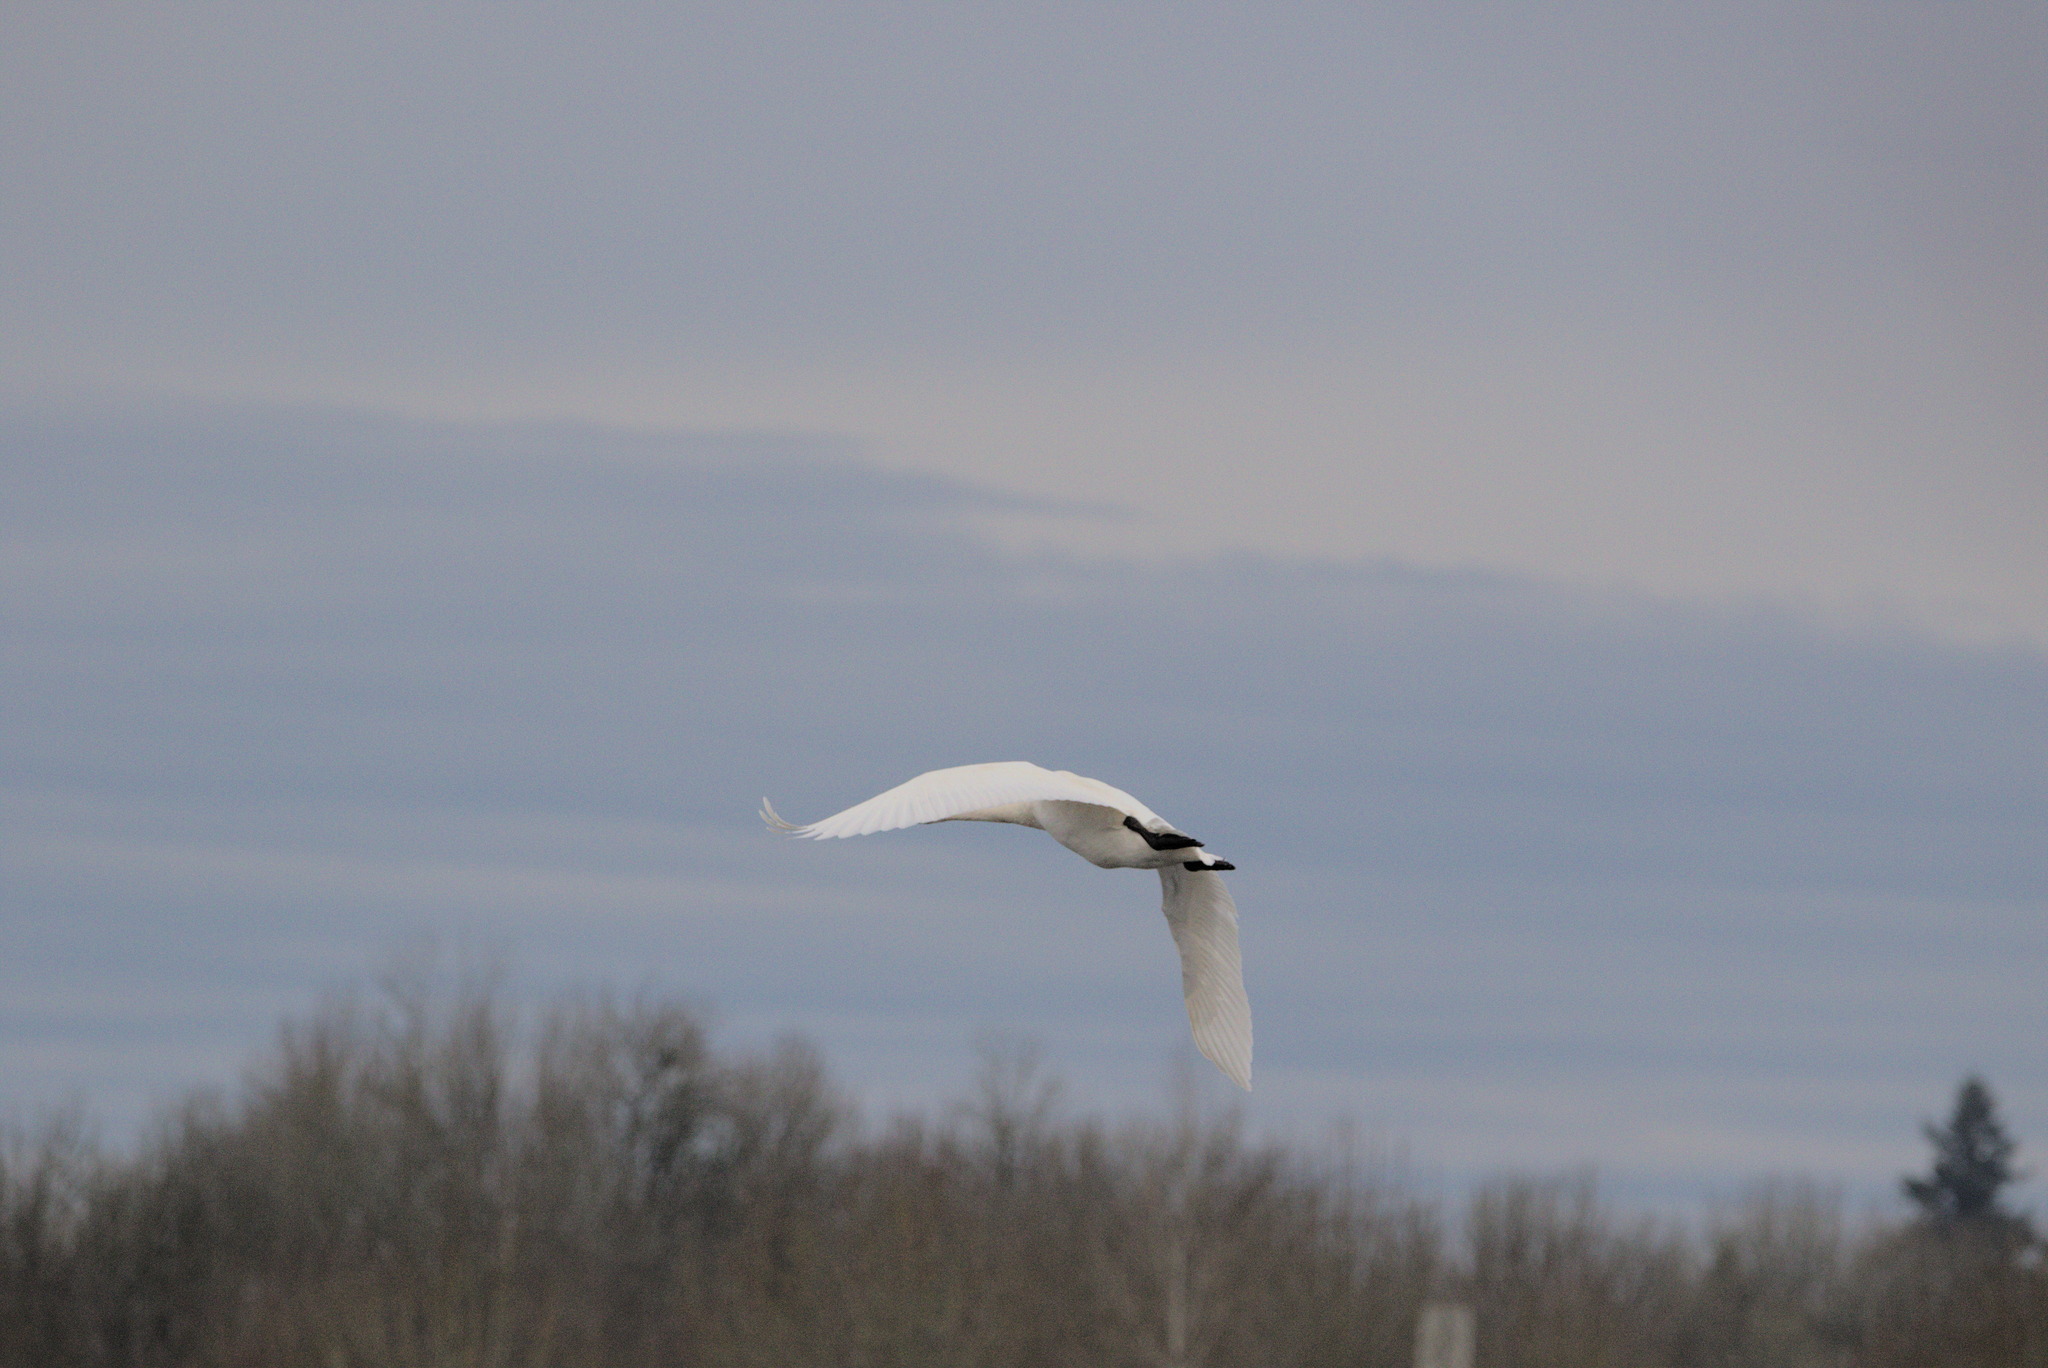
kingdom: Animalia
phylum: Chordata
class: Aves
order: Anseriformes
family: Anatidae
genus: Cygnus
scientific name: Cygnus buccinator
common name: Trumpeter swan
